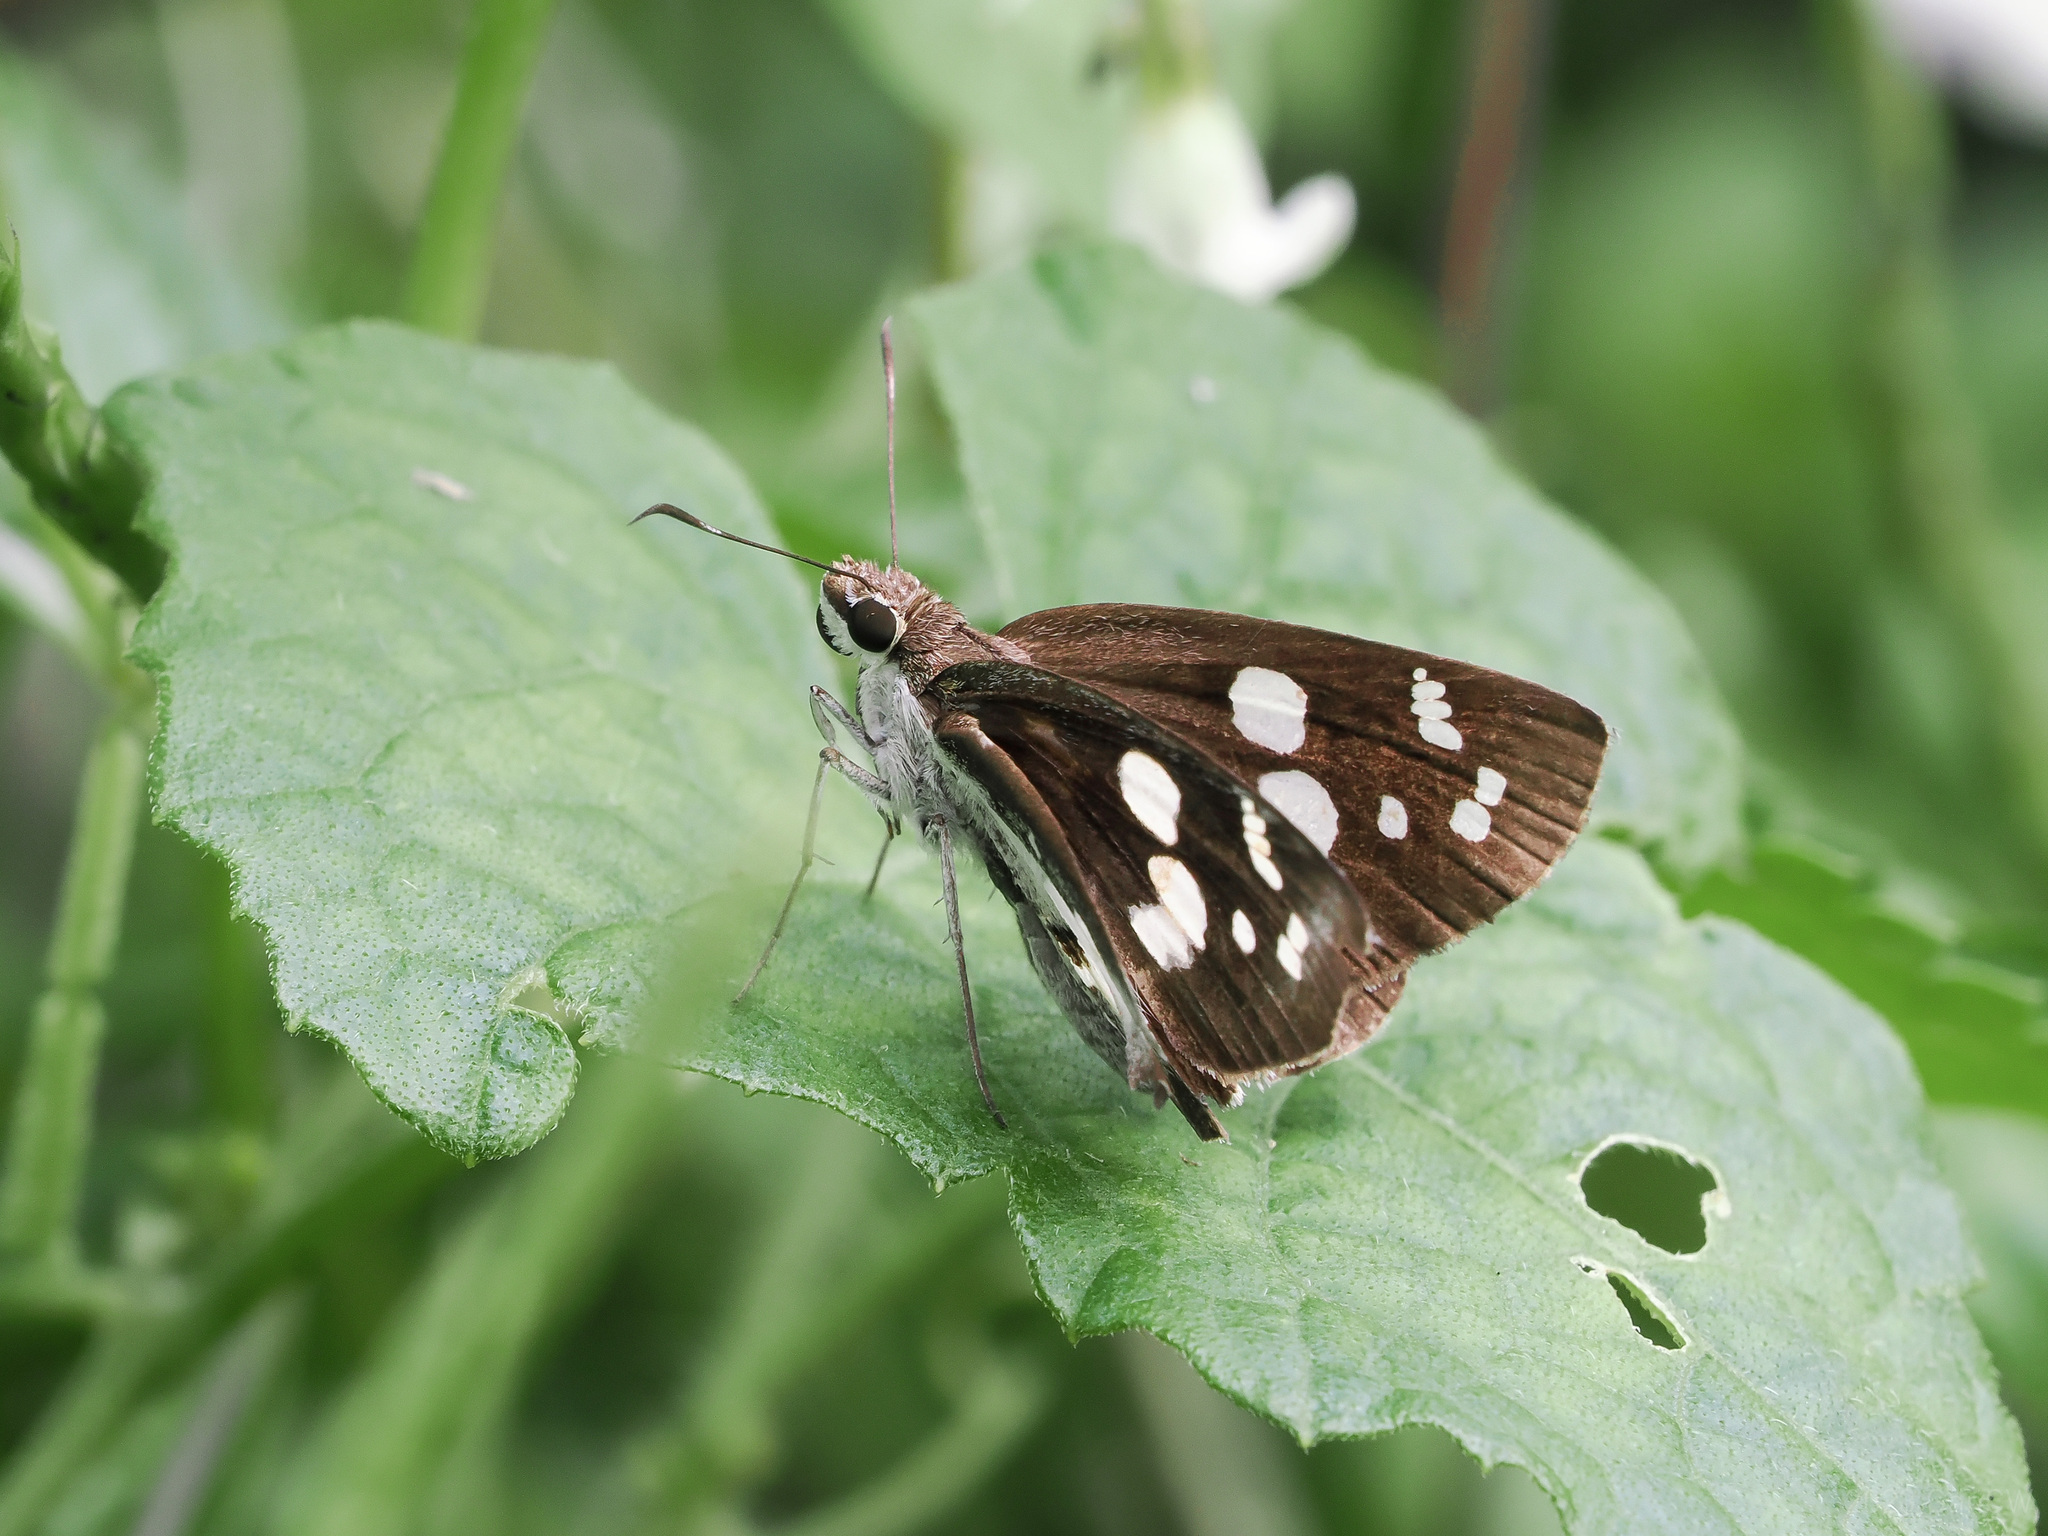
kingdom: Animalia
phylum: Arthropoda
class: Insecta
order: Lepidoptera
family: Hesperiidae
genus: Udaspes
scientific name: Udaspes folus
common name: Grass demon
